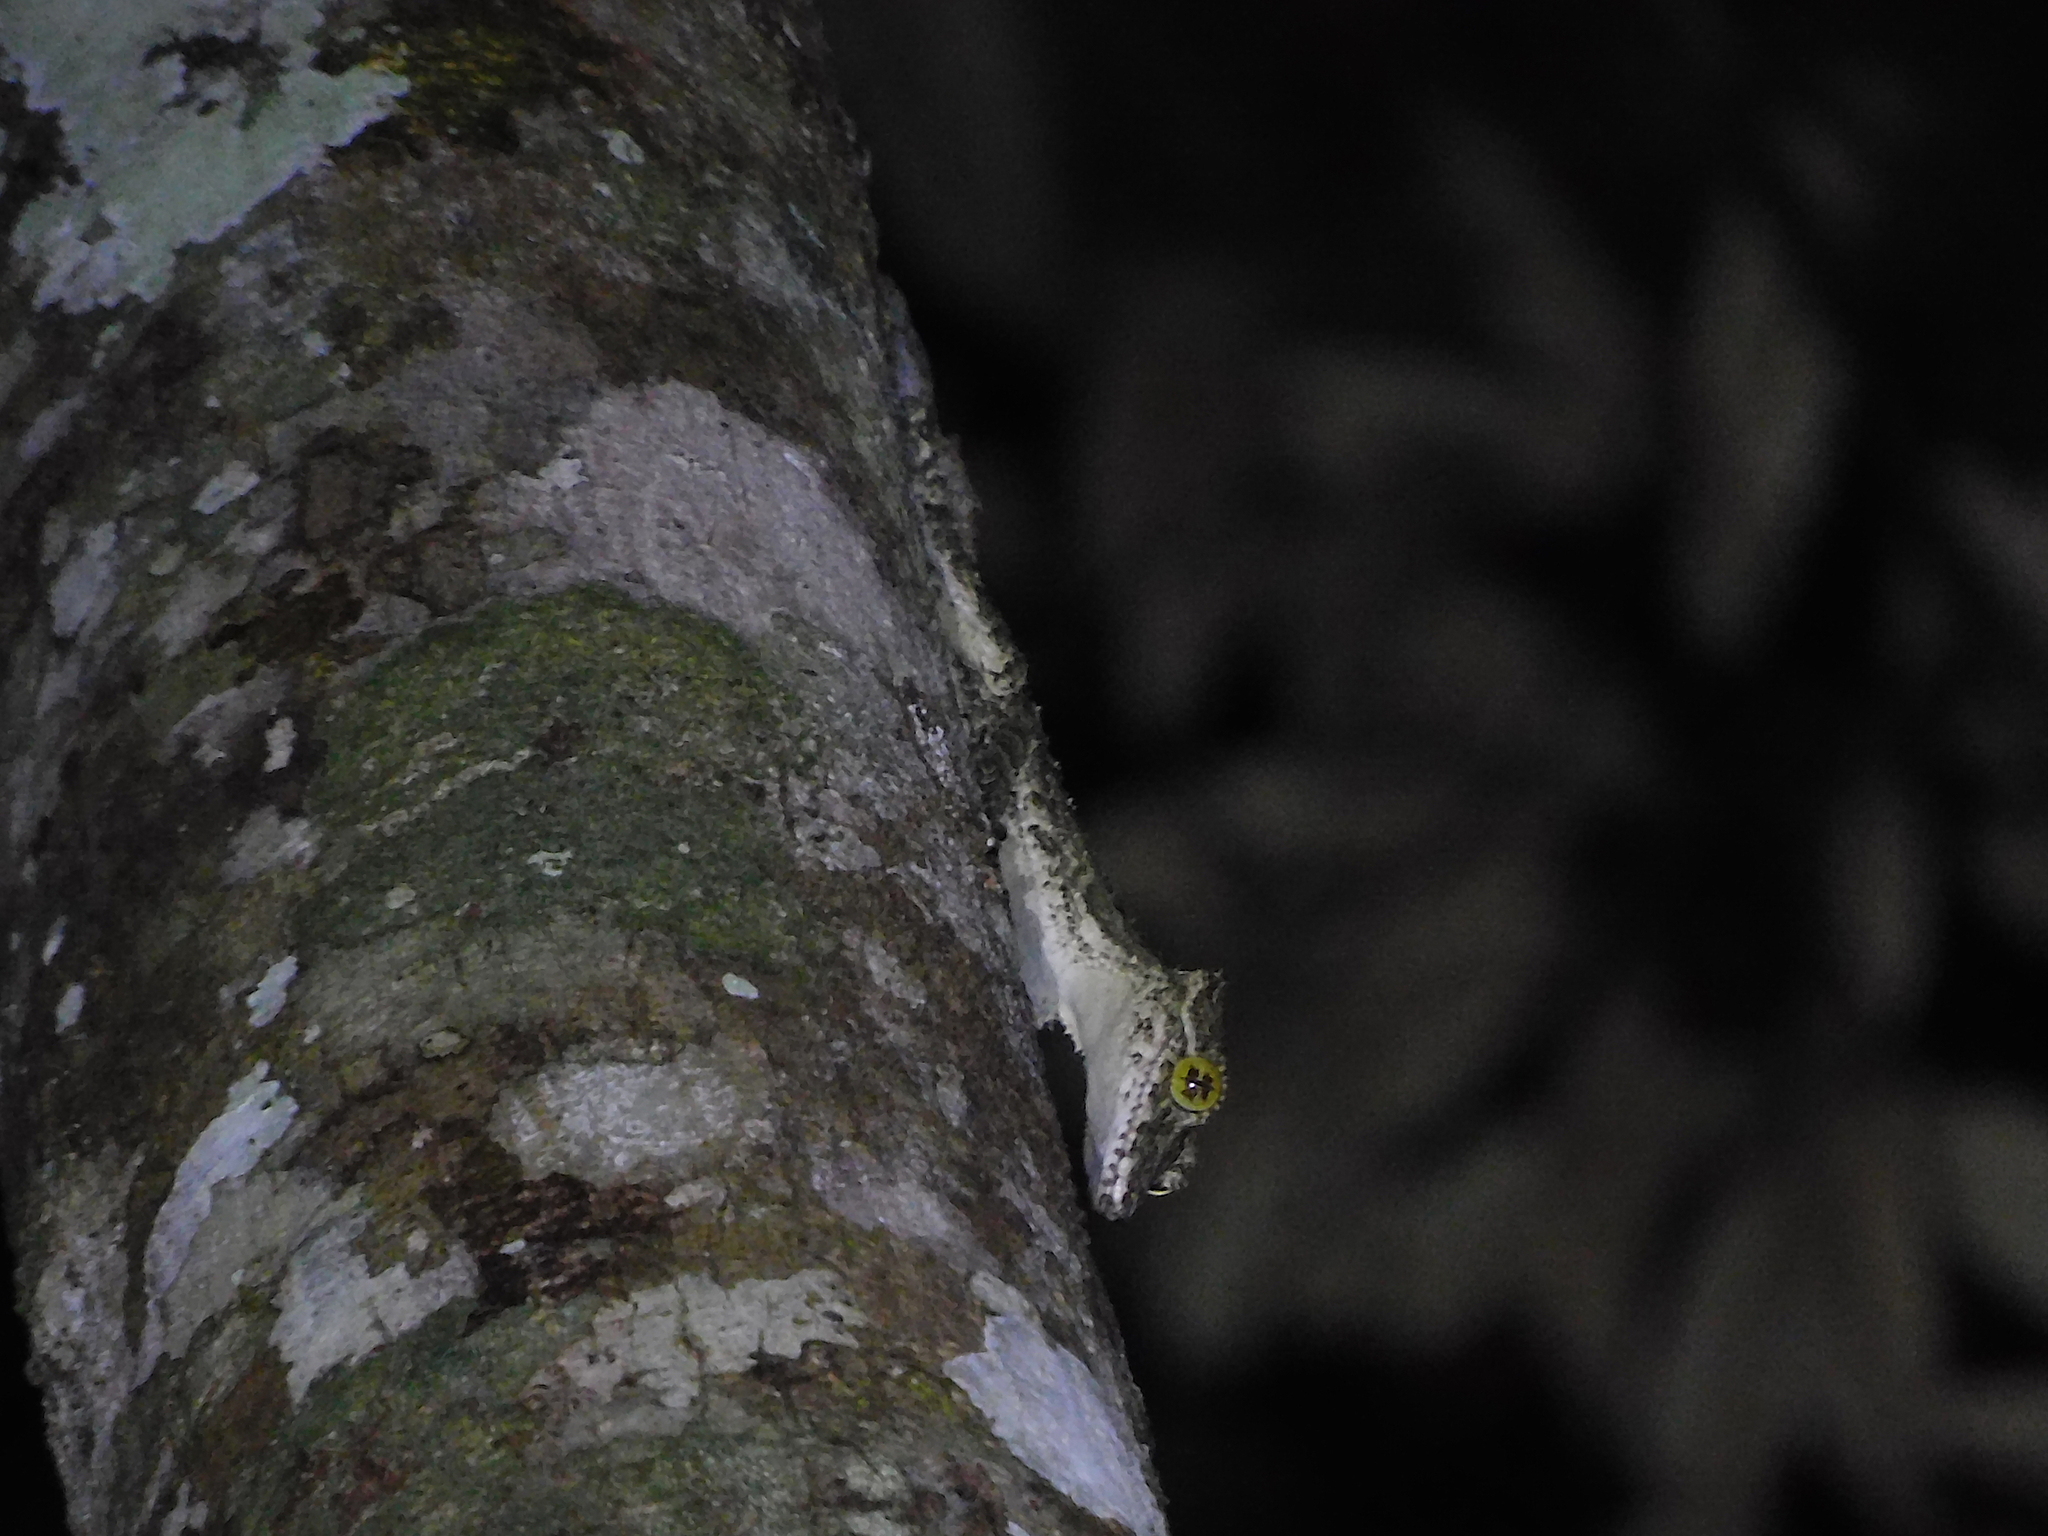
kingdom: Animalia
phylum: Chordata
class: Squamata
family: Carphodactylidae
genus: Saltuarius
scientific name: Saltuarius cornutus
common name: Leaf-tailed gecko
